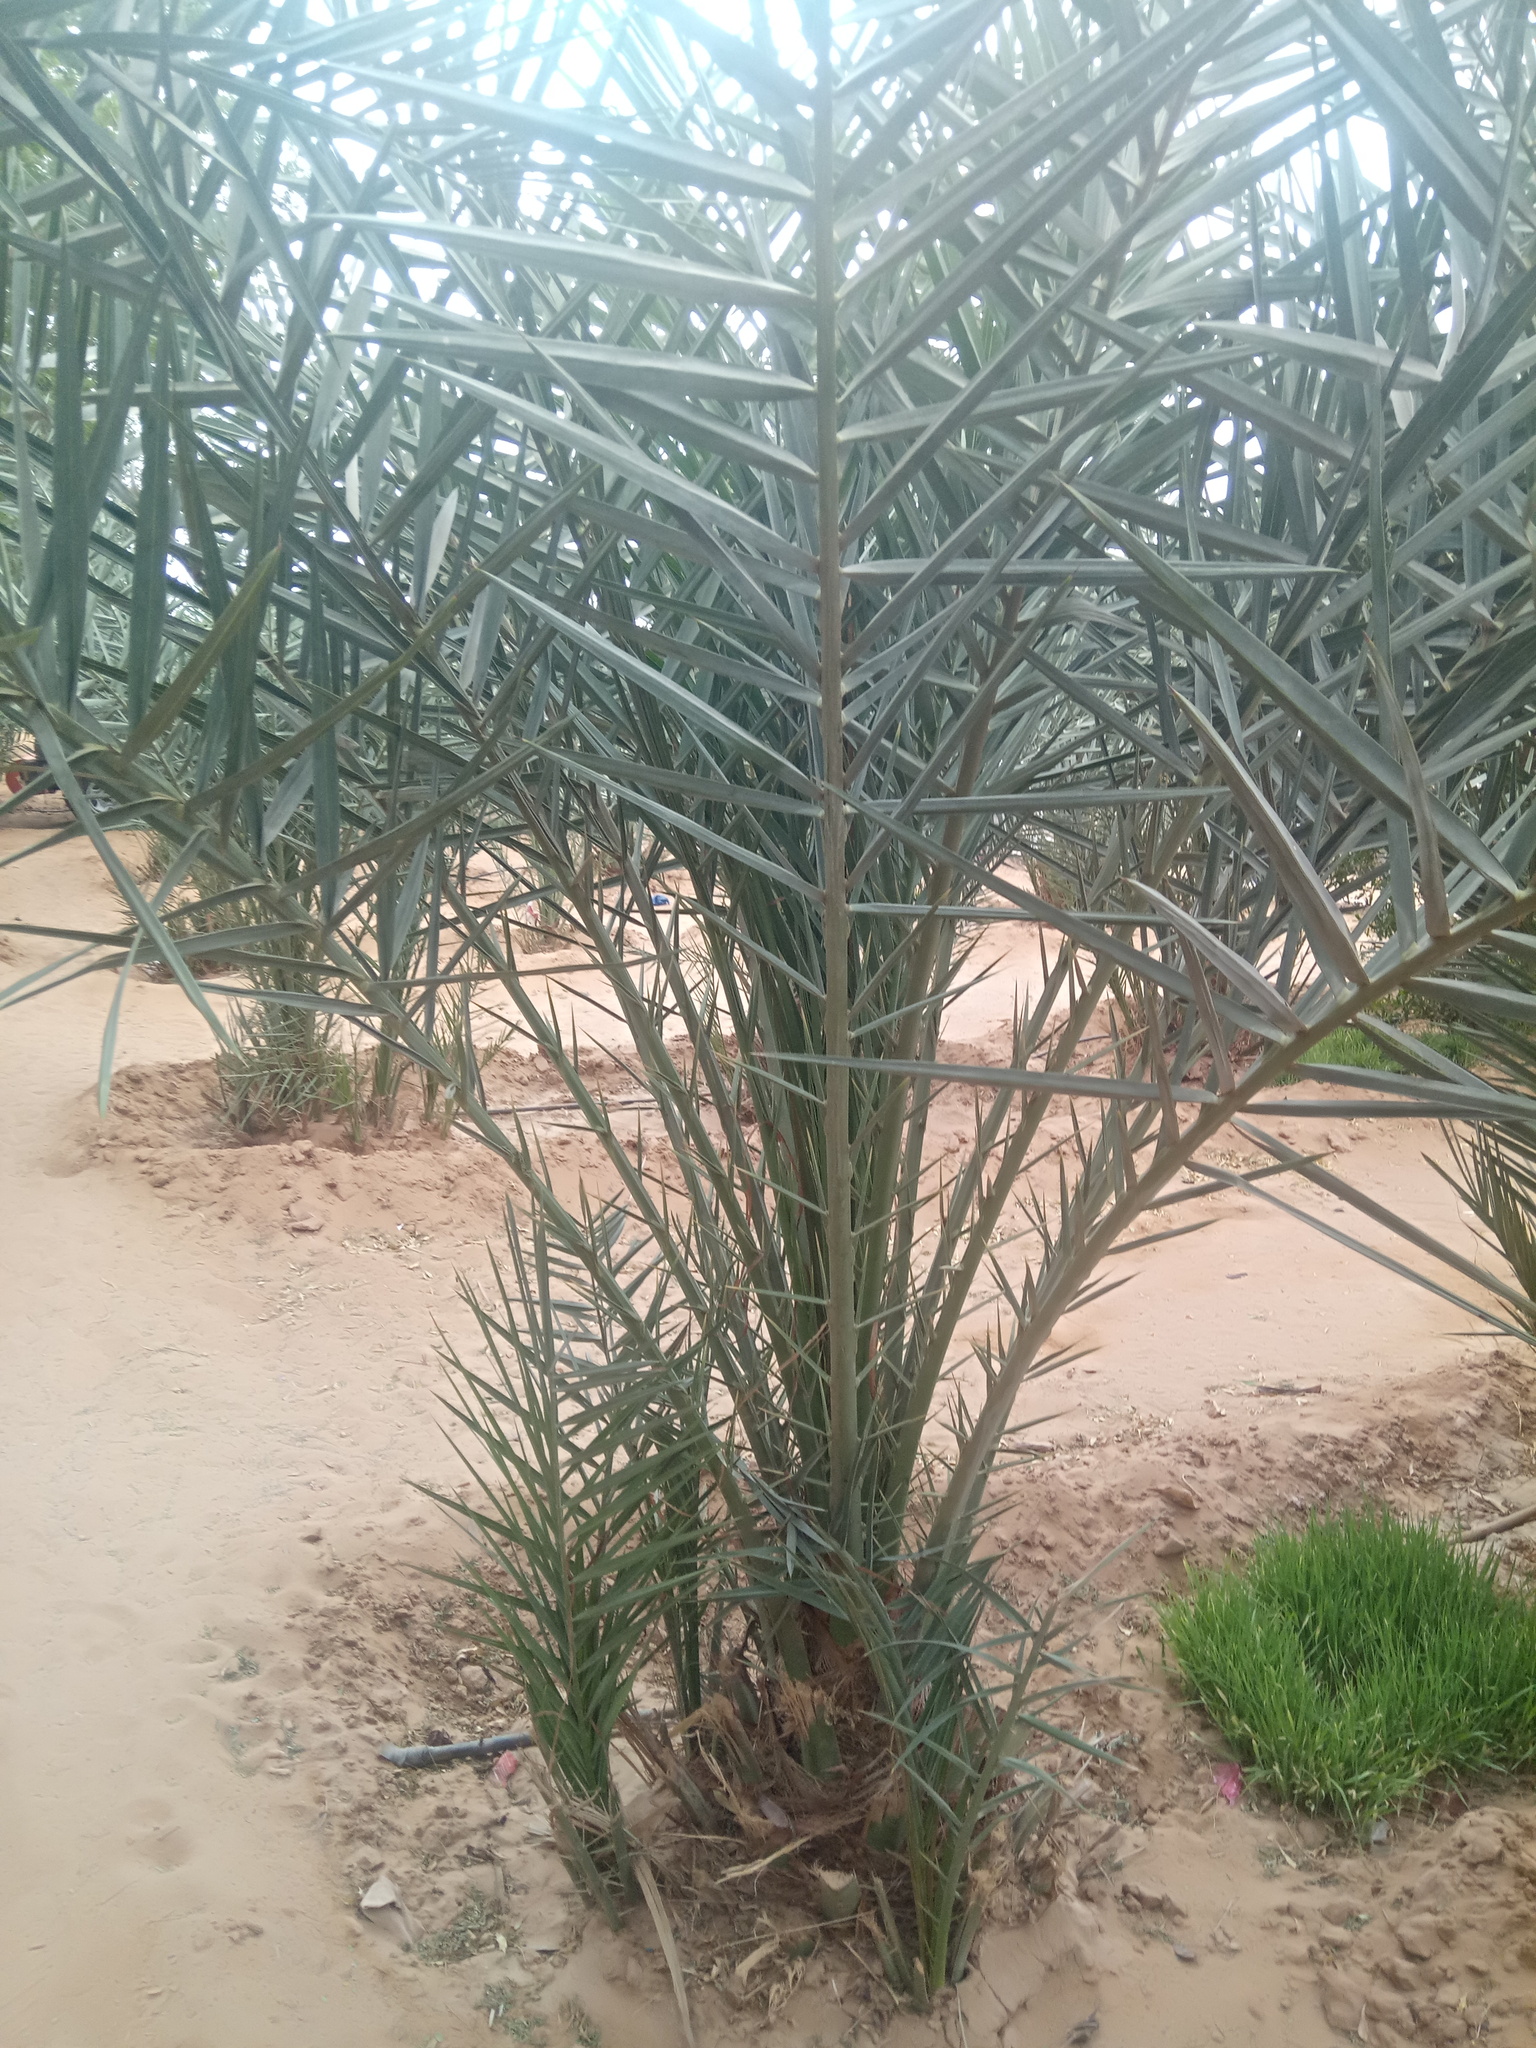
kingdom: Plantae
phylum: Tracheophyta
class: Liliopsida
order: Arecales
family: Arecaceae
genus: Phoenix
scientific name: Phoenix dactylifera
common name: Date palm
